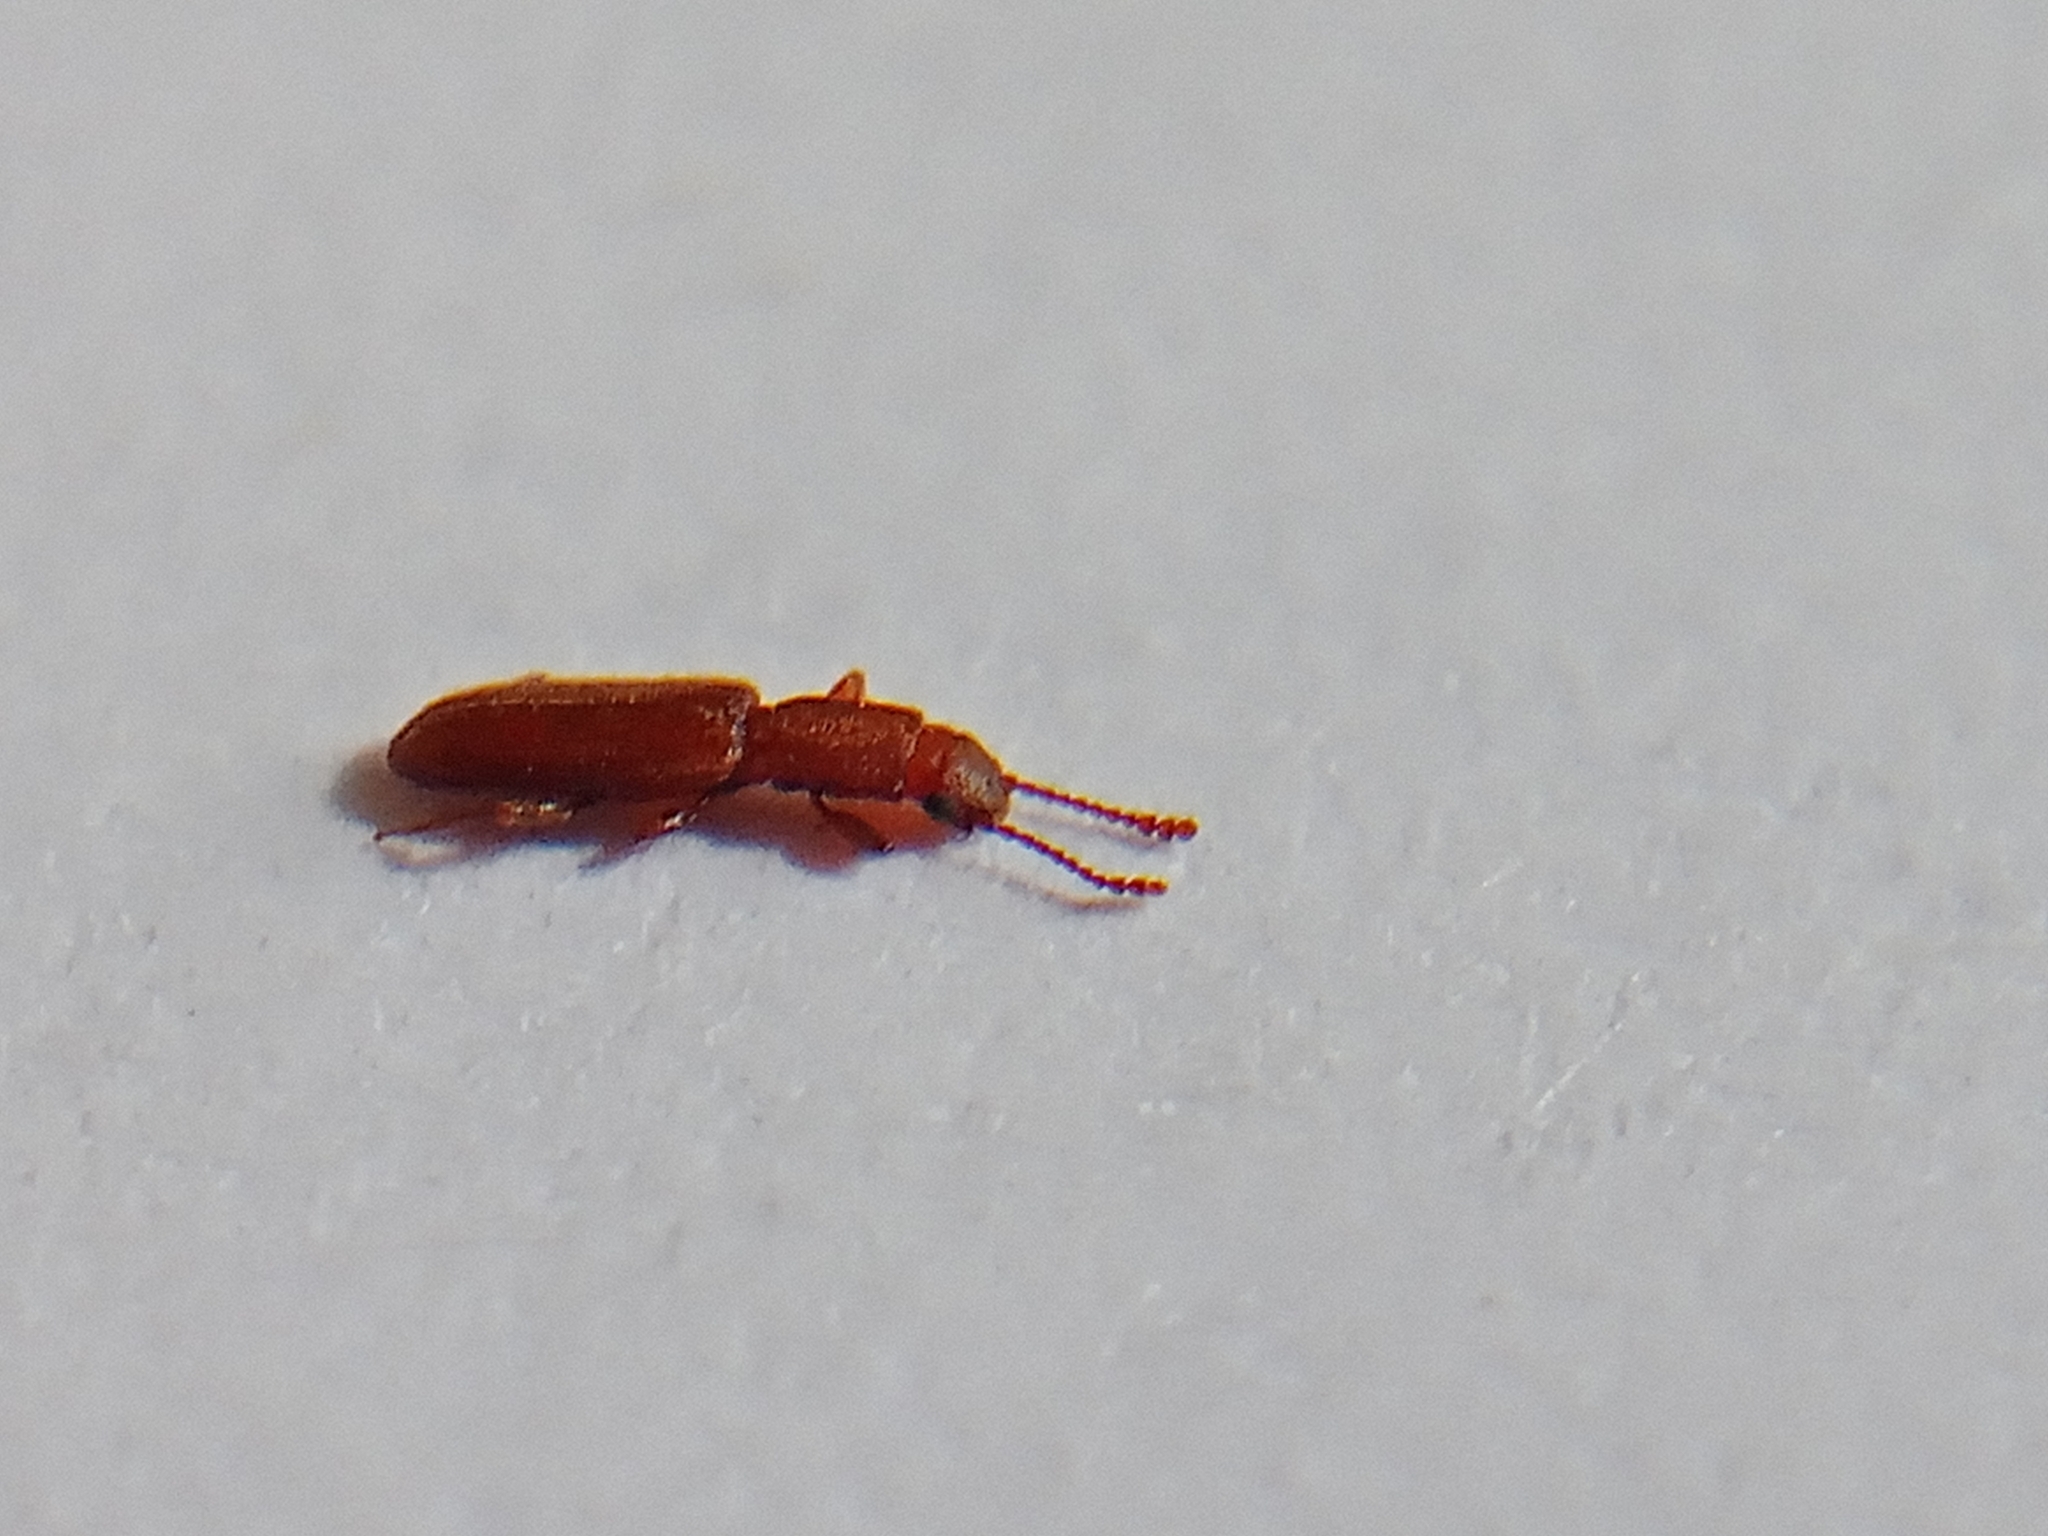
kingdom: Animalia
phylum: Arthropoda
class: Insecta
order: Coleoptera
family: Silvanidae
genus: Silvanus
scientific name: Silvanus unidentatus
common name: One-toothed silvan flat bark beetle
